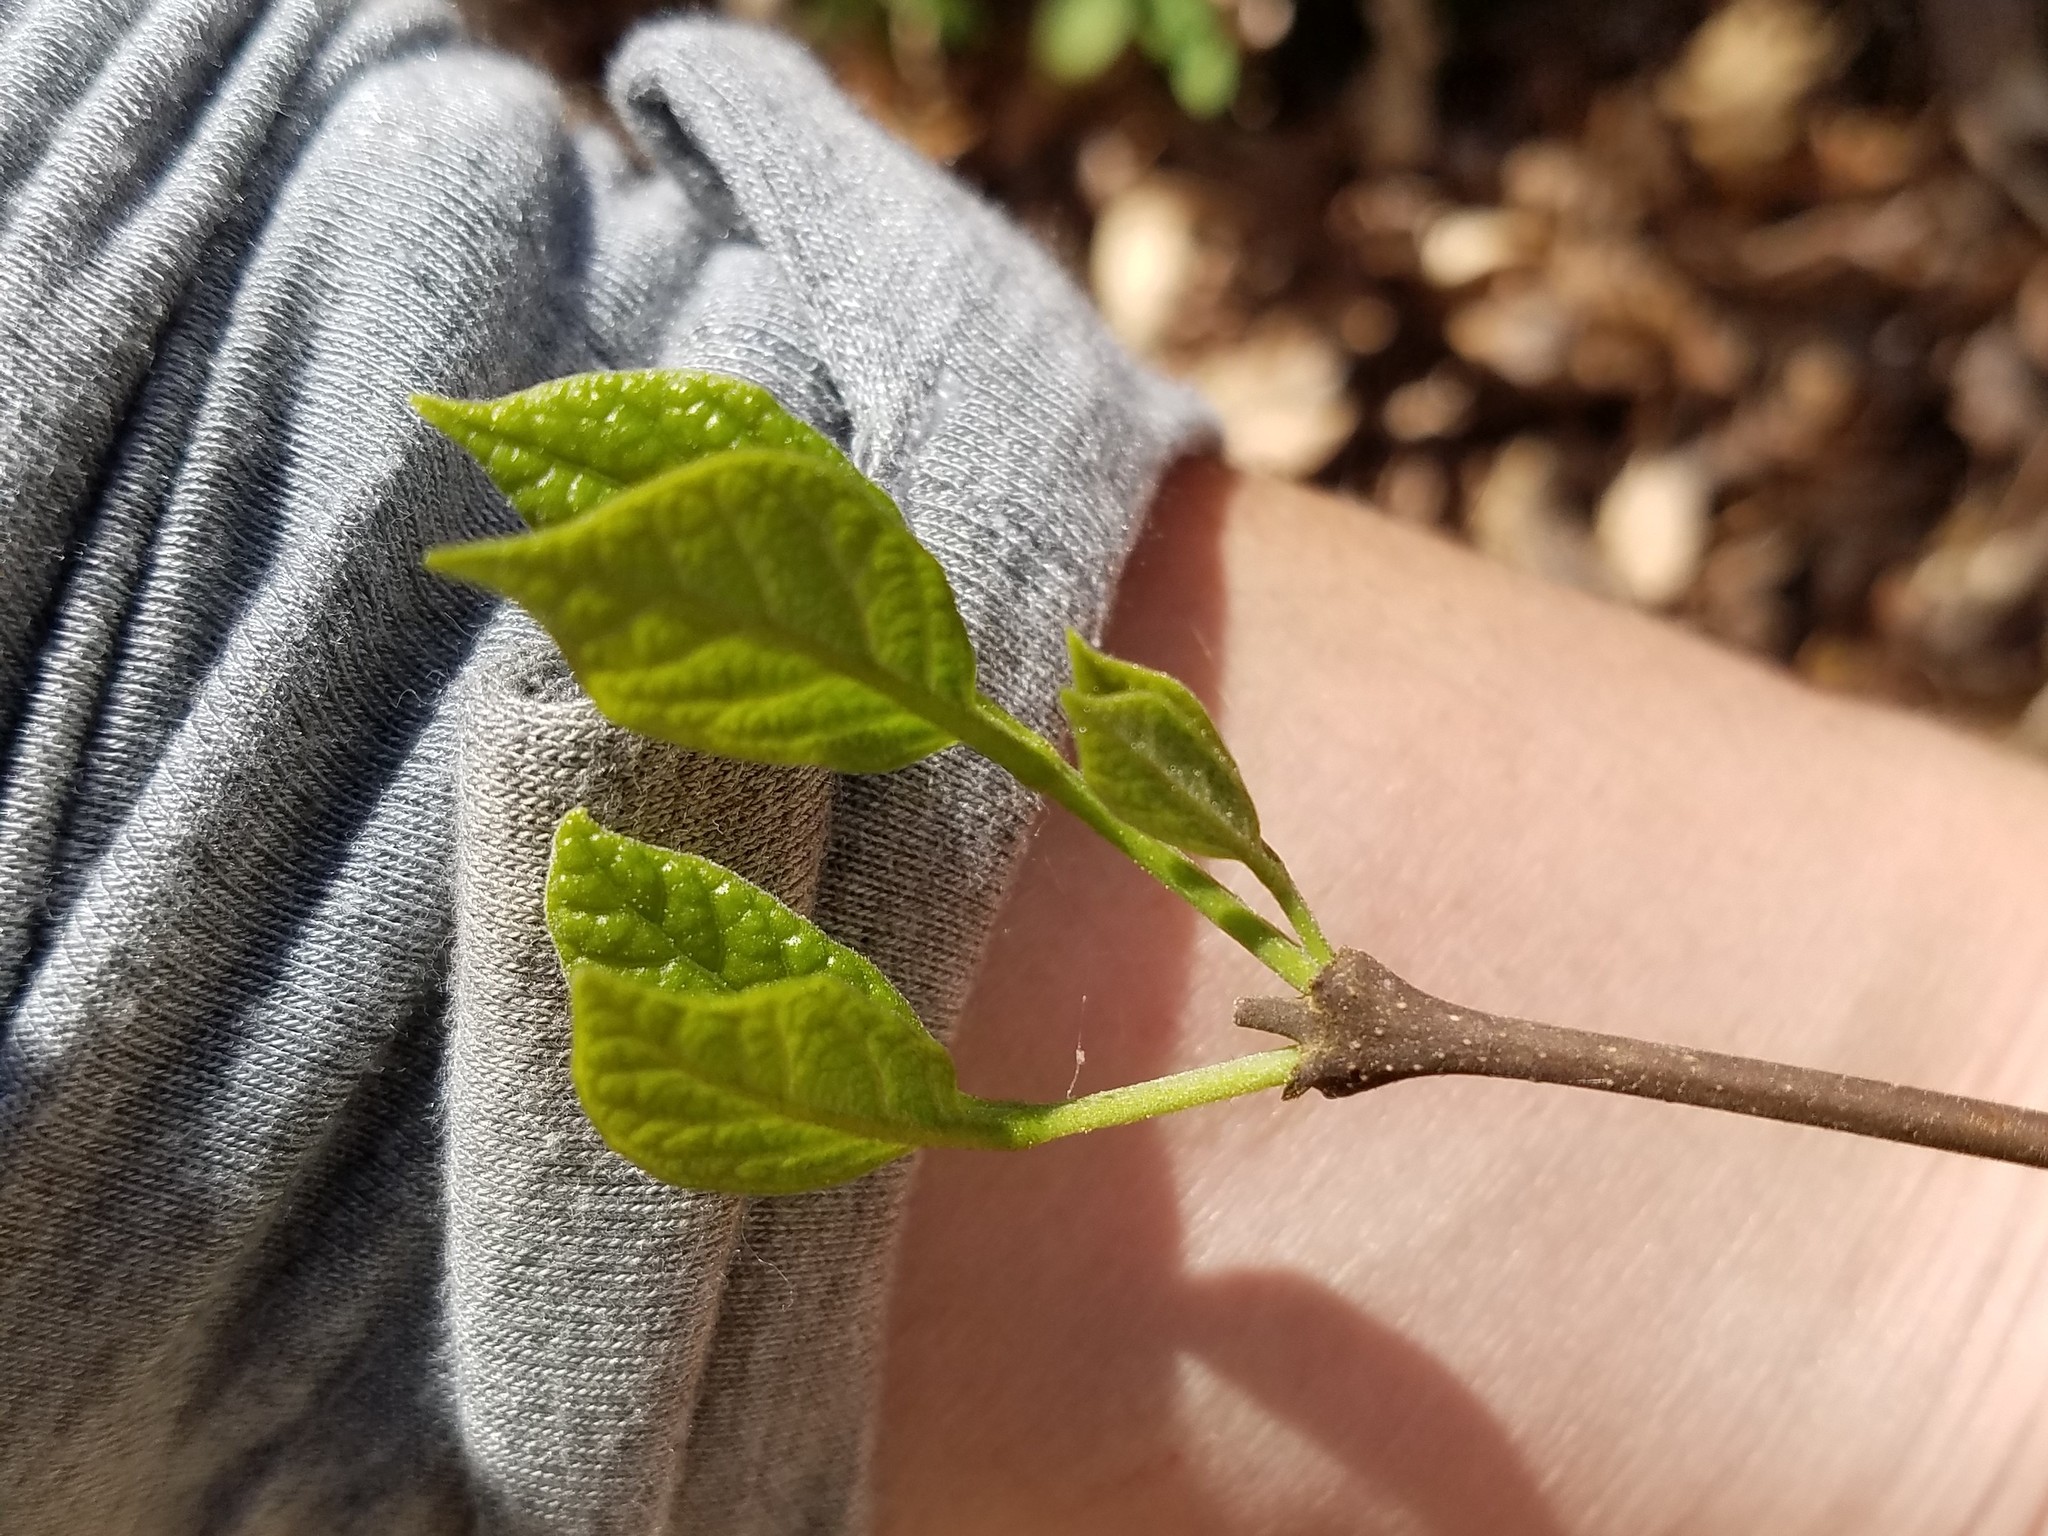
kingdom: Plantae
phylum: Tracheophyta
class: Magnoliopsida
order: Laurales
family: Calycanthaceae
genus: Calycanthus
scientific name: Calycanthus floridus
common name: Carolina-allspice
